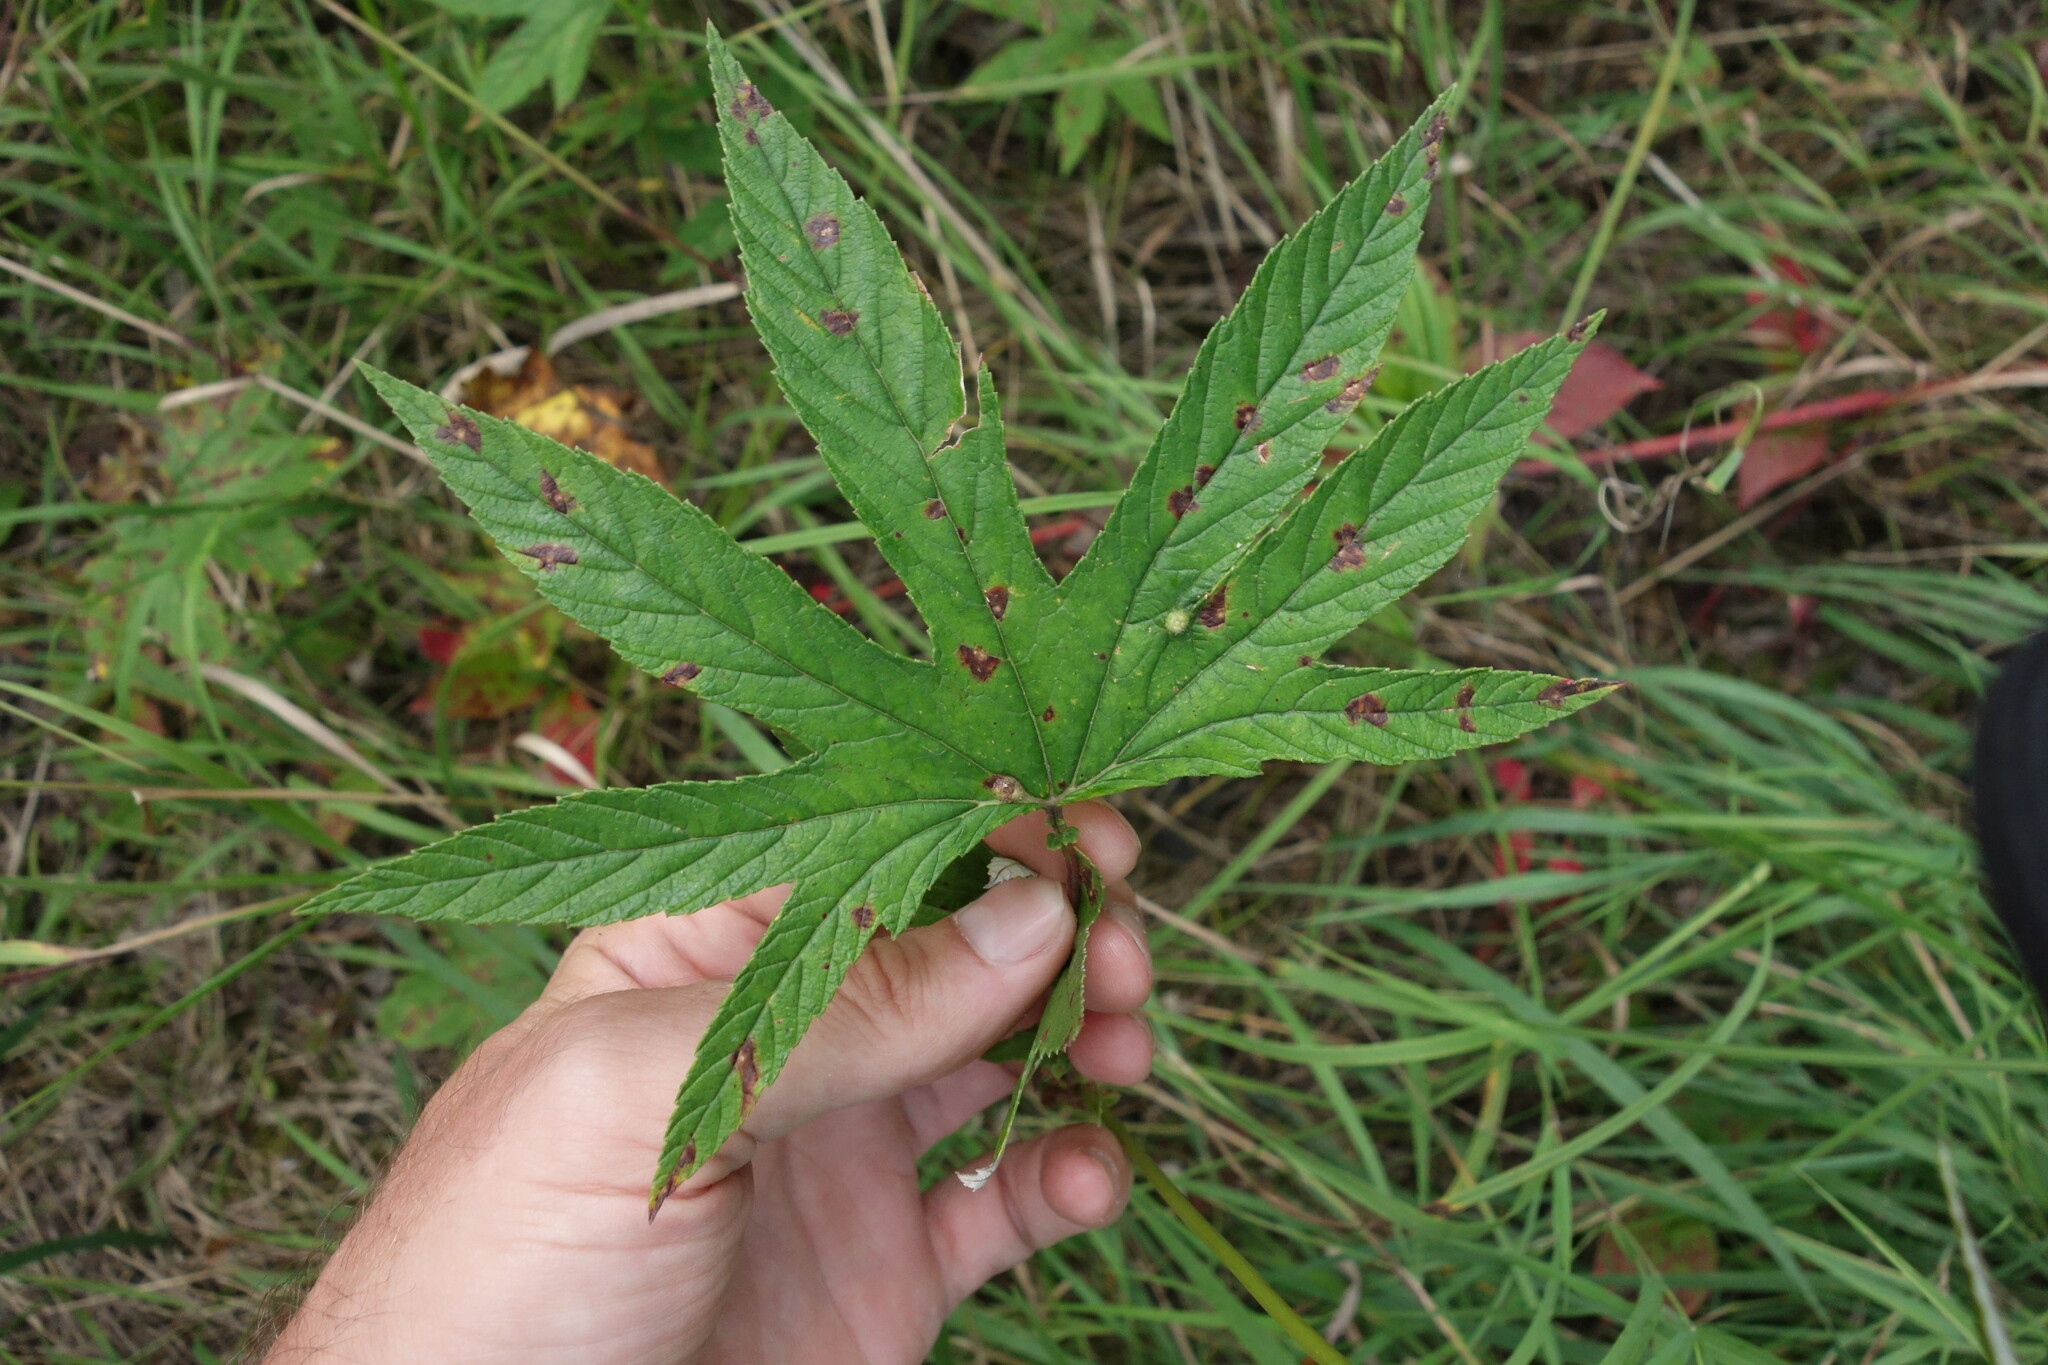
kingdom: Plantae
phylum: Tracheophyta
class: Magnoliopsida
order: Rosales
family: Rosaceae
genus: Filipendula
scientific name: Filipendula digitata
